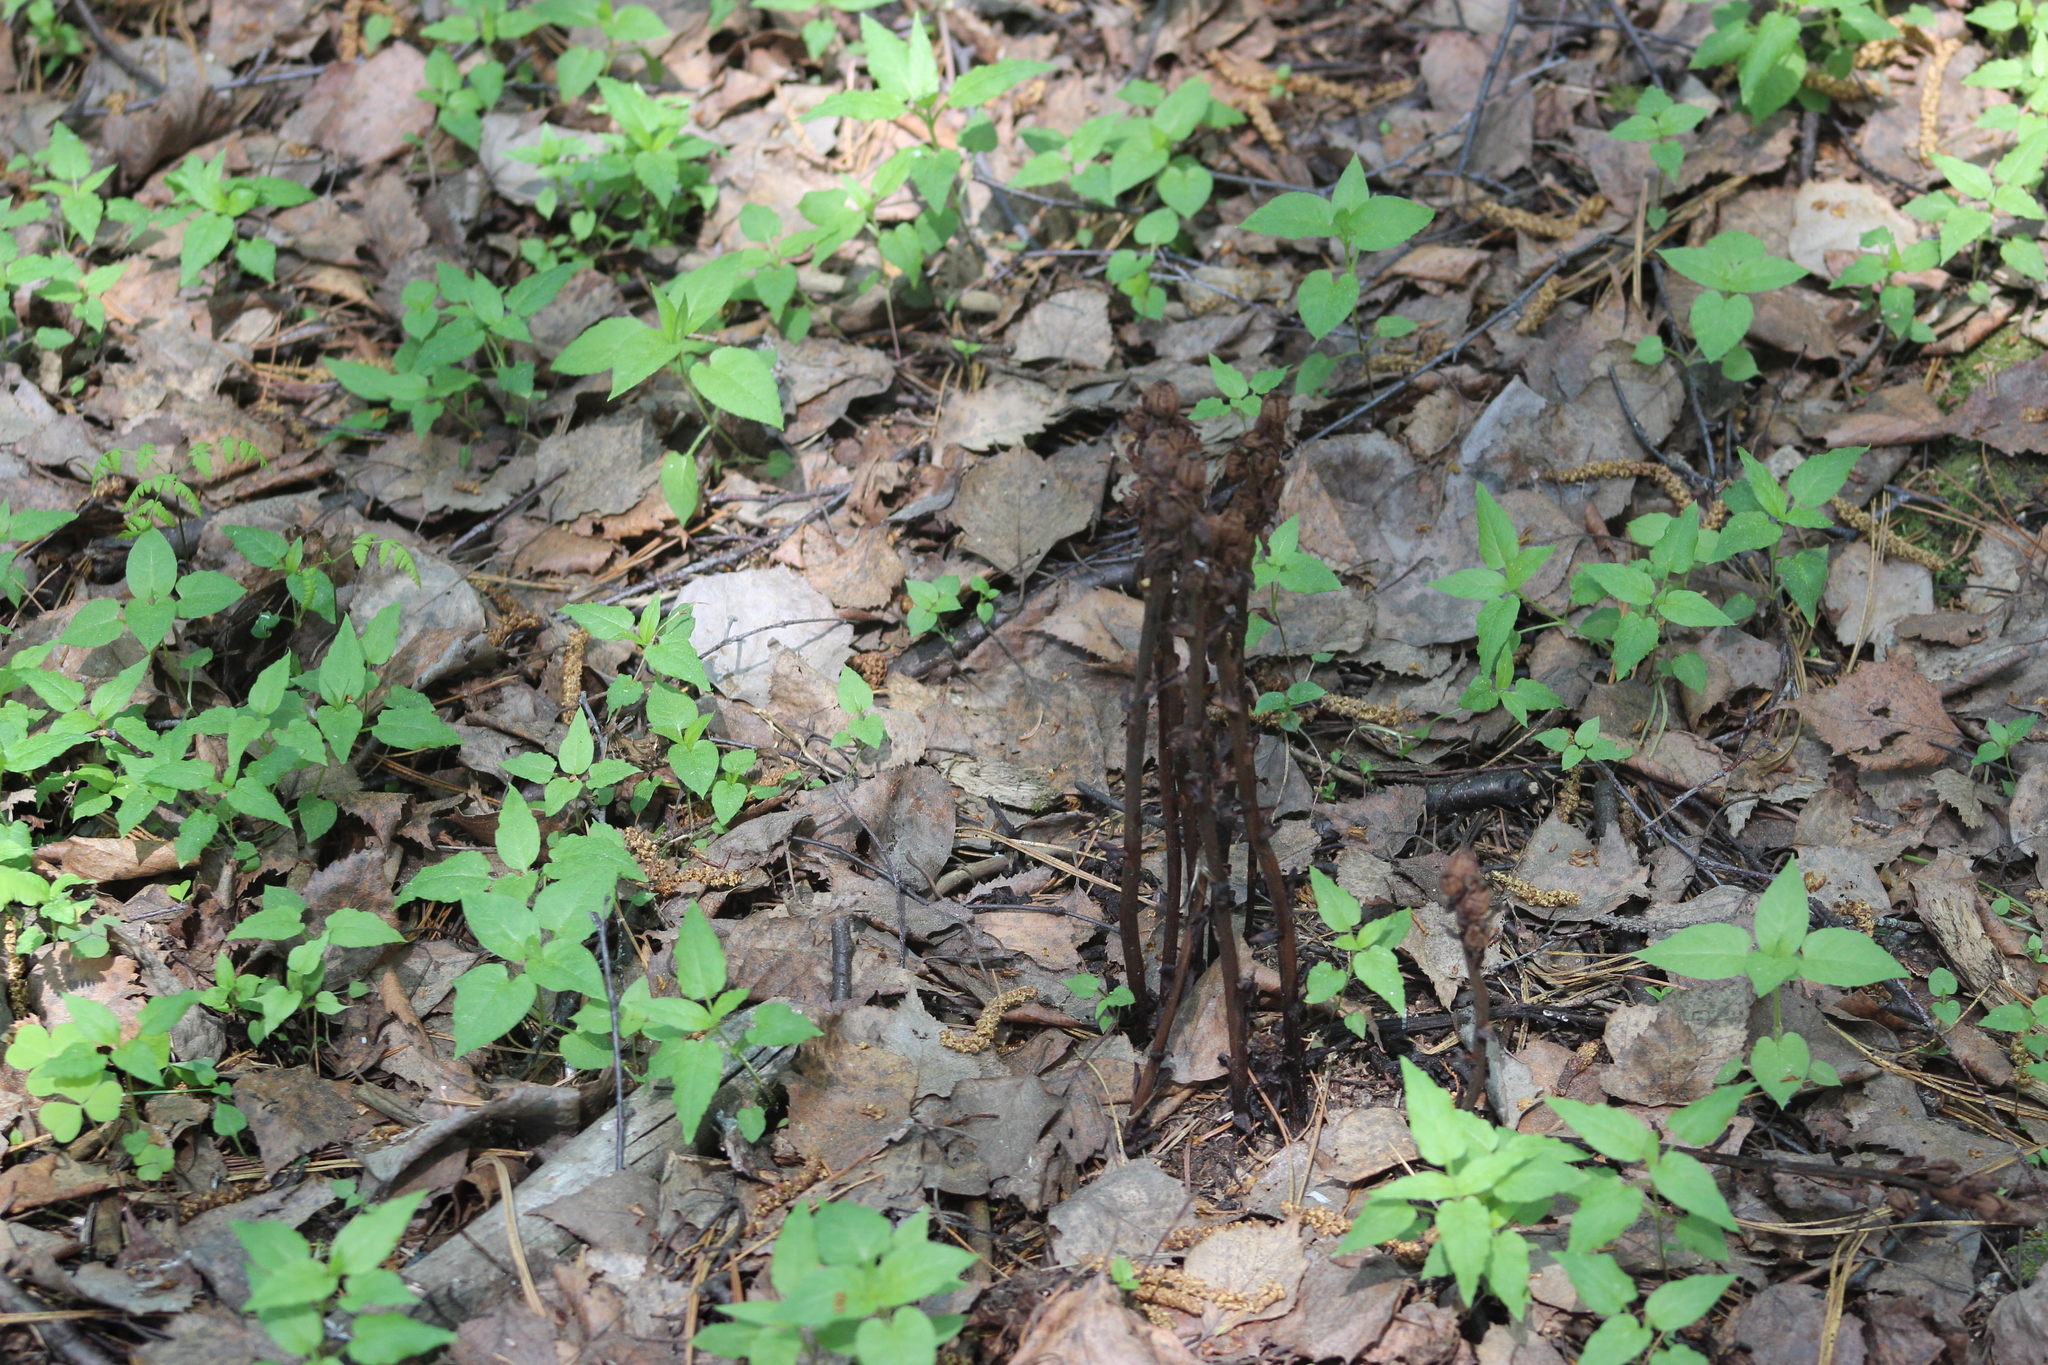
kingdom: Plantae
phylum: Tracheophyta
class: Magnoliopsida
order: Ericales
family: Ericaceae
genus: Hypopitys
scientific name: Hypopitys monotropa
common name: Yellow bird's-nest
